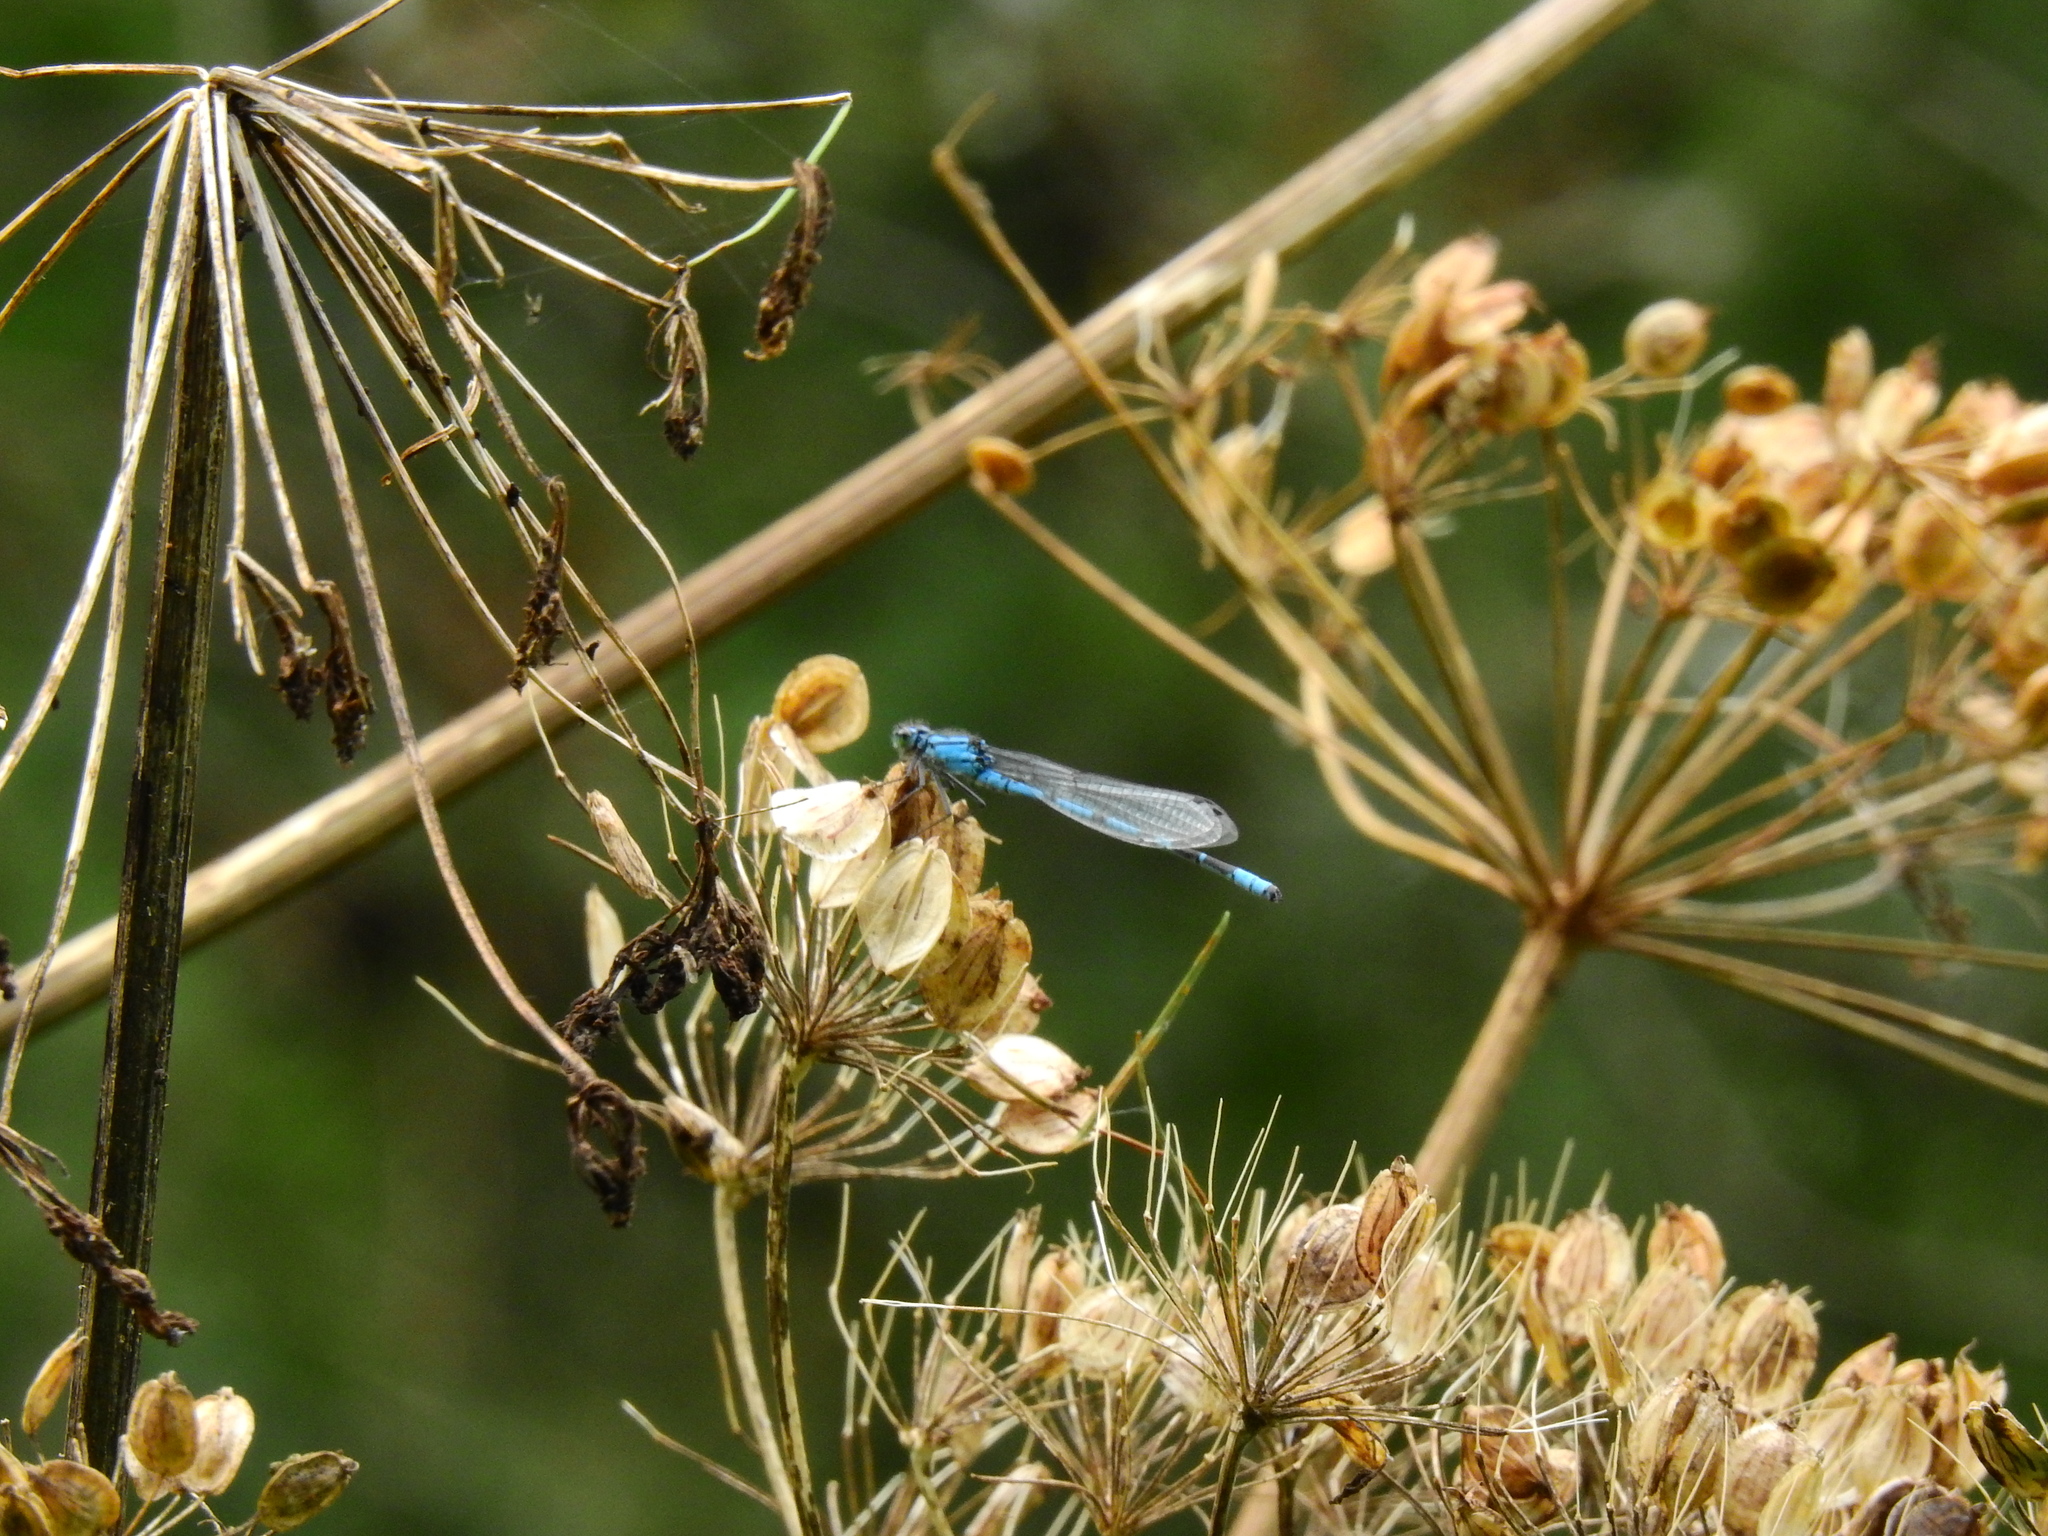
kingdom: Animalia
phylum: Arthropoda
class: Insecta
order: Odonata
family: Coenagrionidae
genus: Enallagma
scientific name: Enallagma cyathigerum
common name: Common blue damselfly
